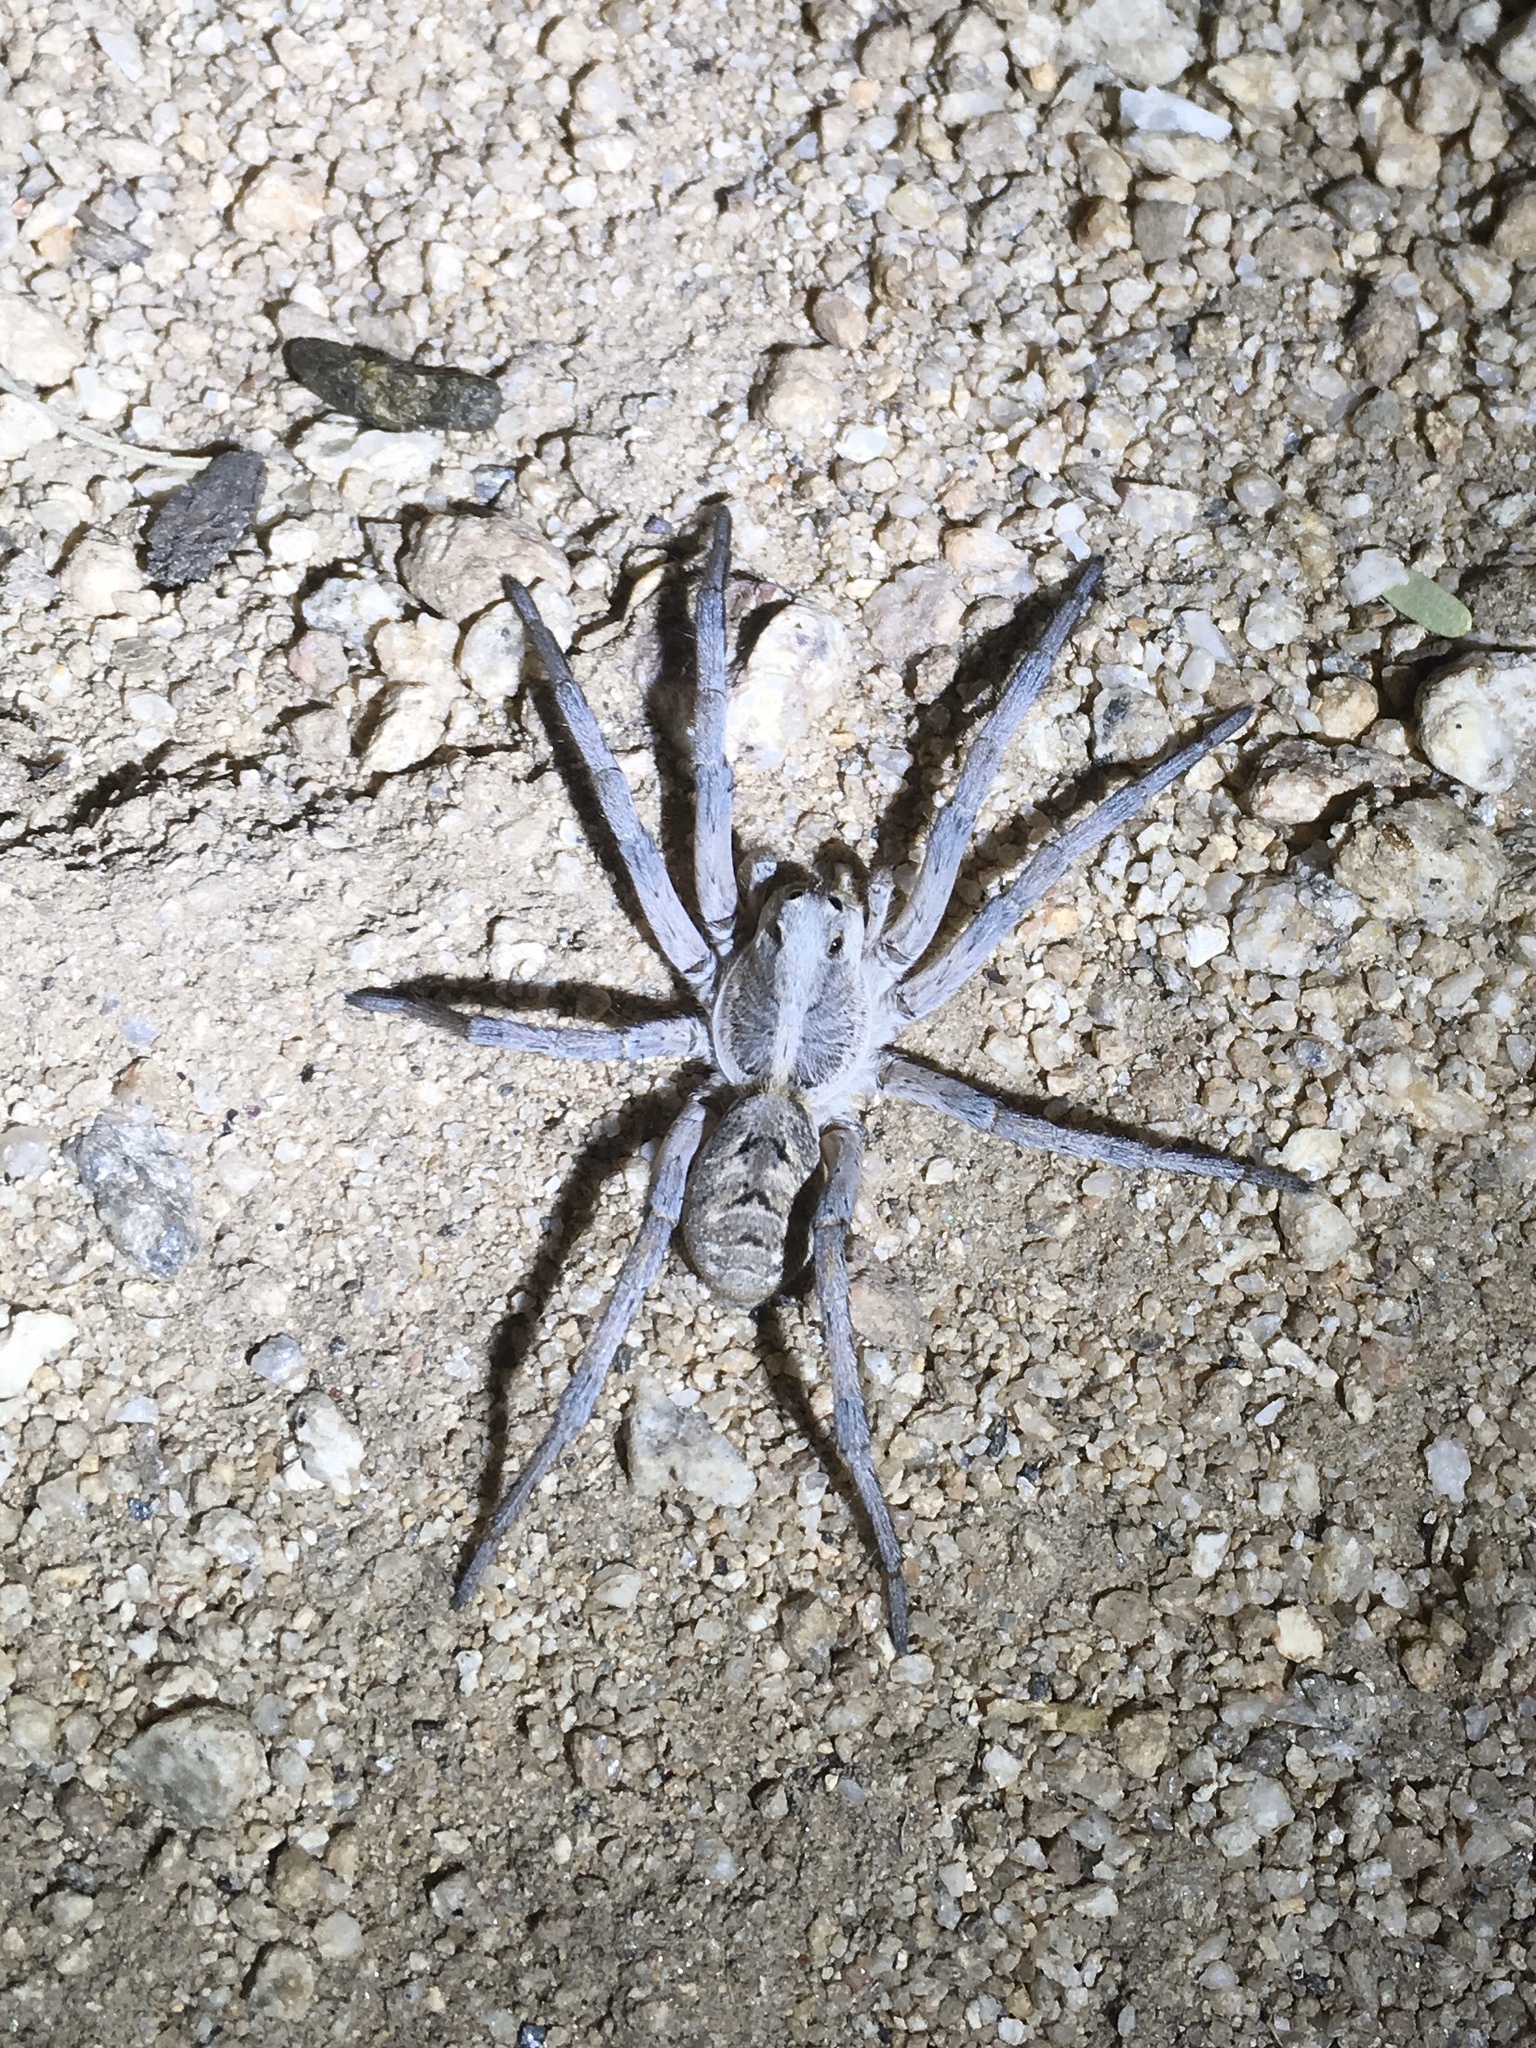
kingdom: Animalia
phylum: Arthropoda
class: Arachnida
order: Araneae
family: Lycosidae
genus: Hogna
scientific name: Hogna carolinensis
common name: Carolina wolf spider
